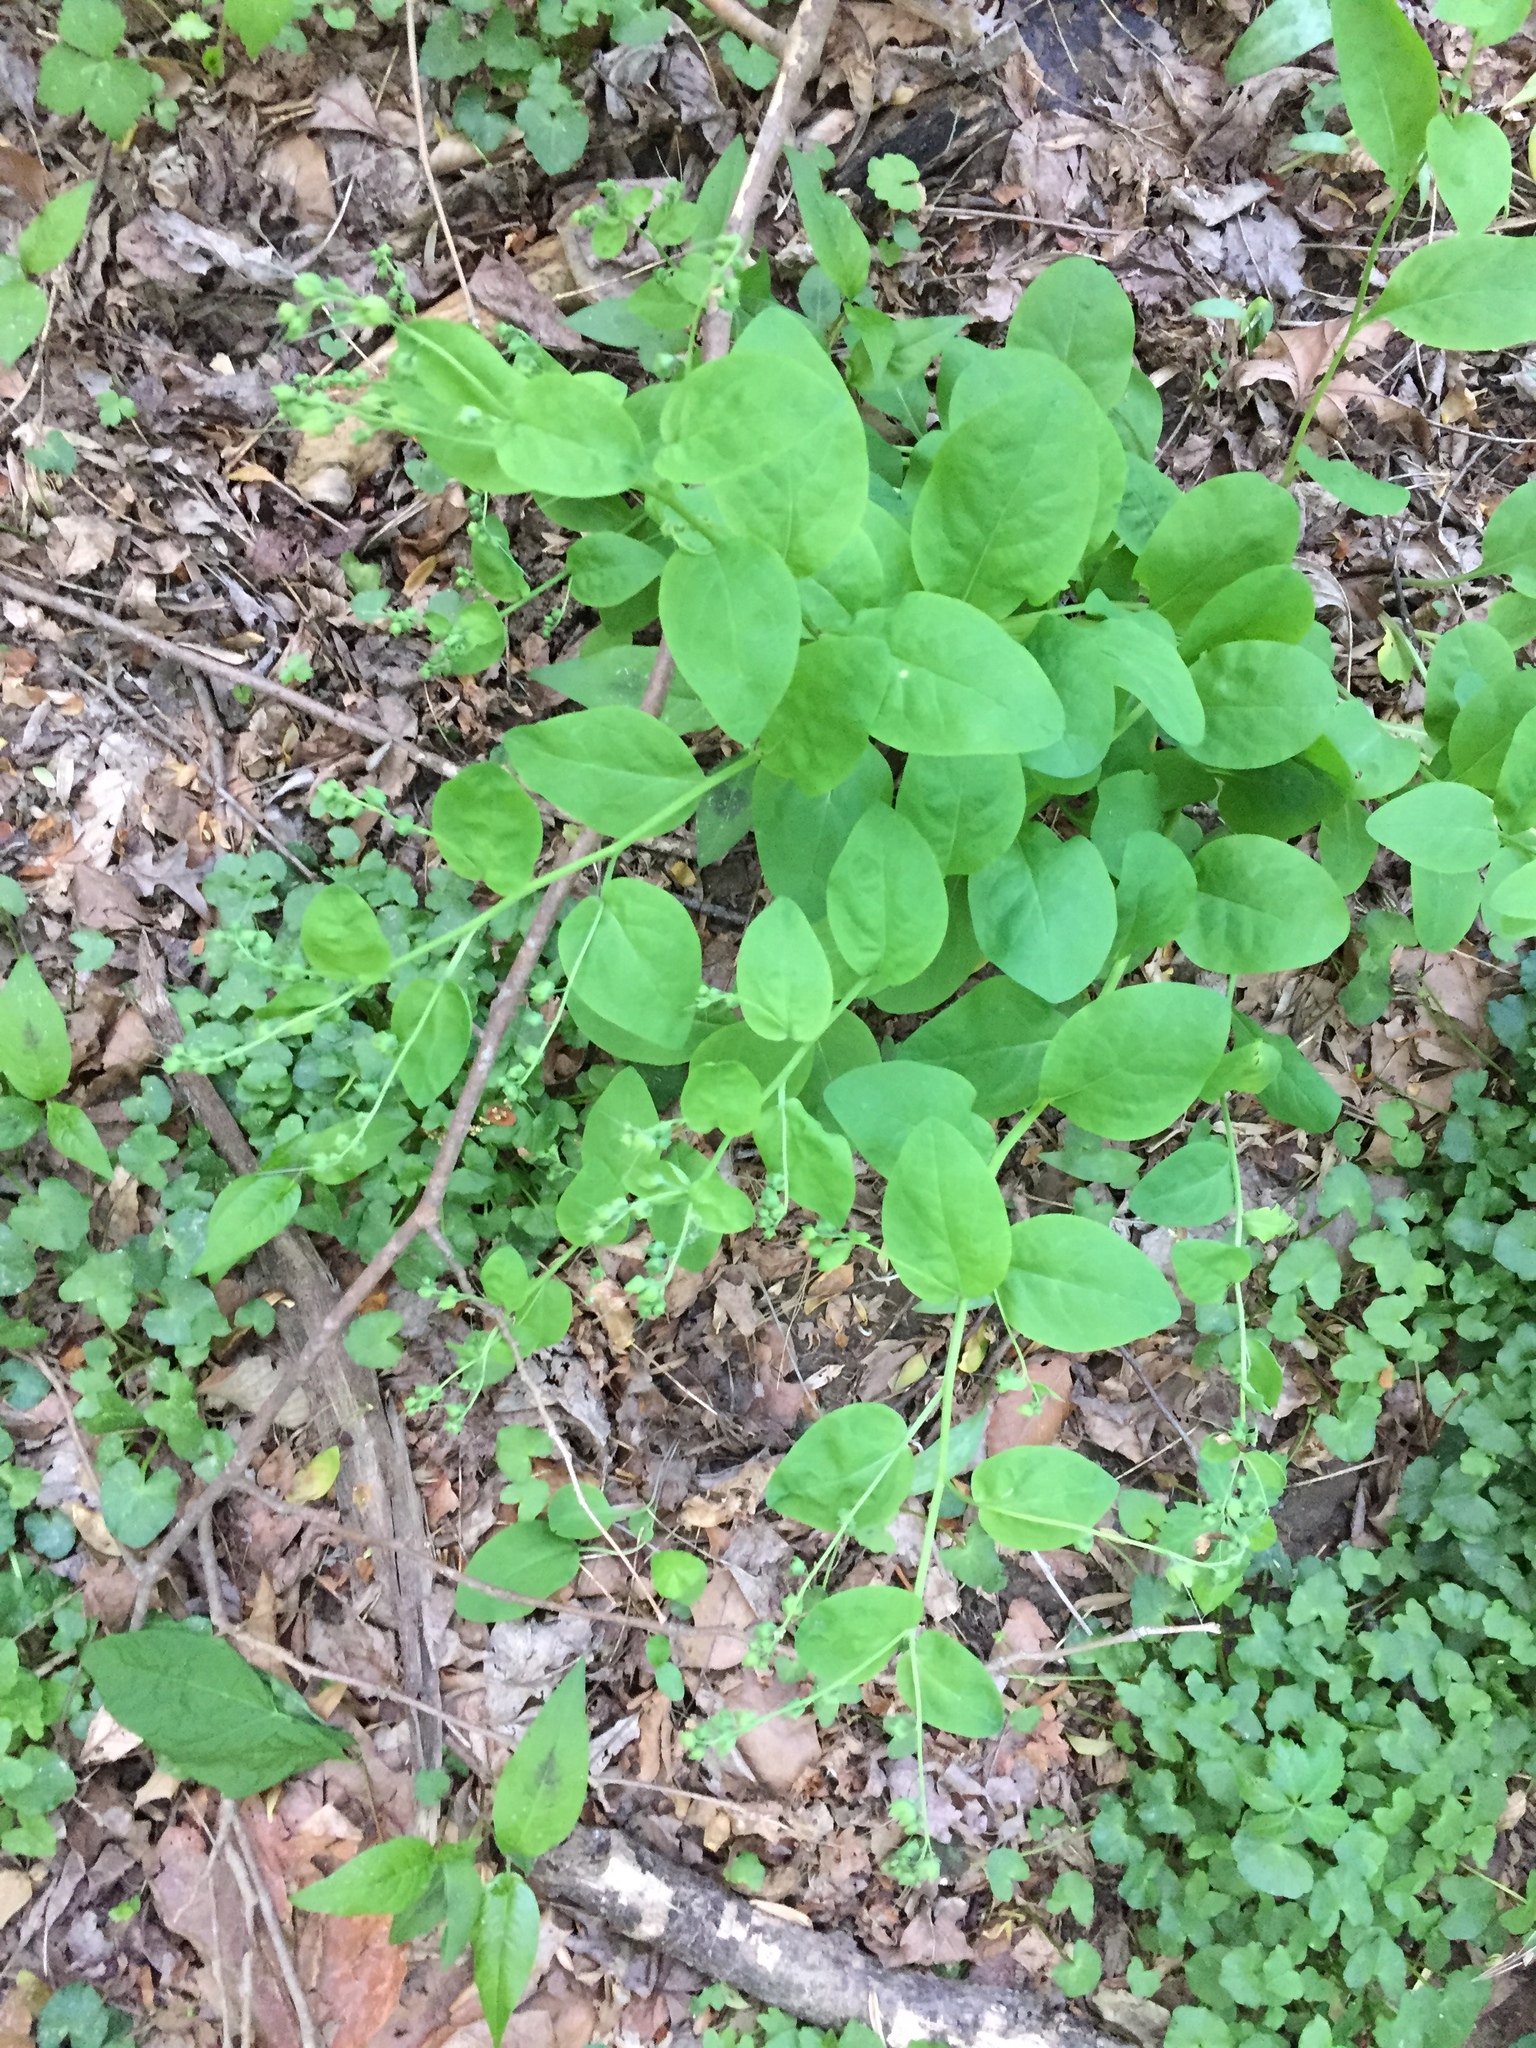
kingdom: Plantae
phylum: Tracheophyta
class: Magnoliopsida
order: Boraginales
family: Boraginaceae
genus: Mertensia
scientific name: Mertensia virginica
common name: Virginia bluebells
